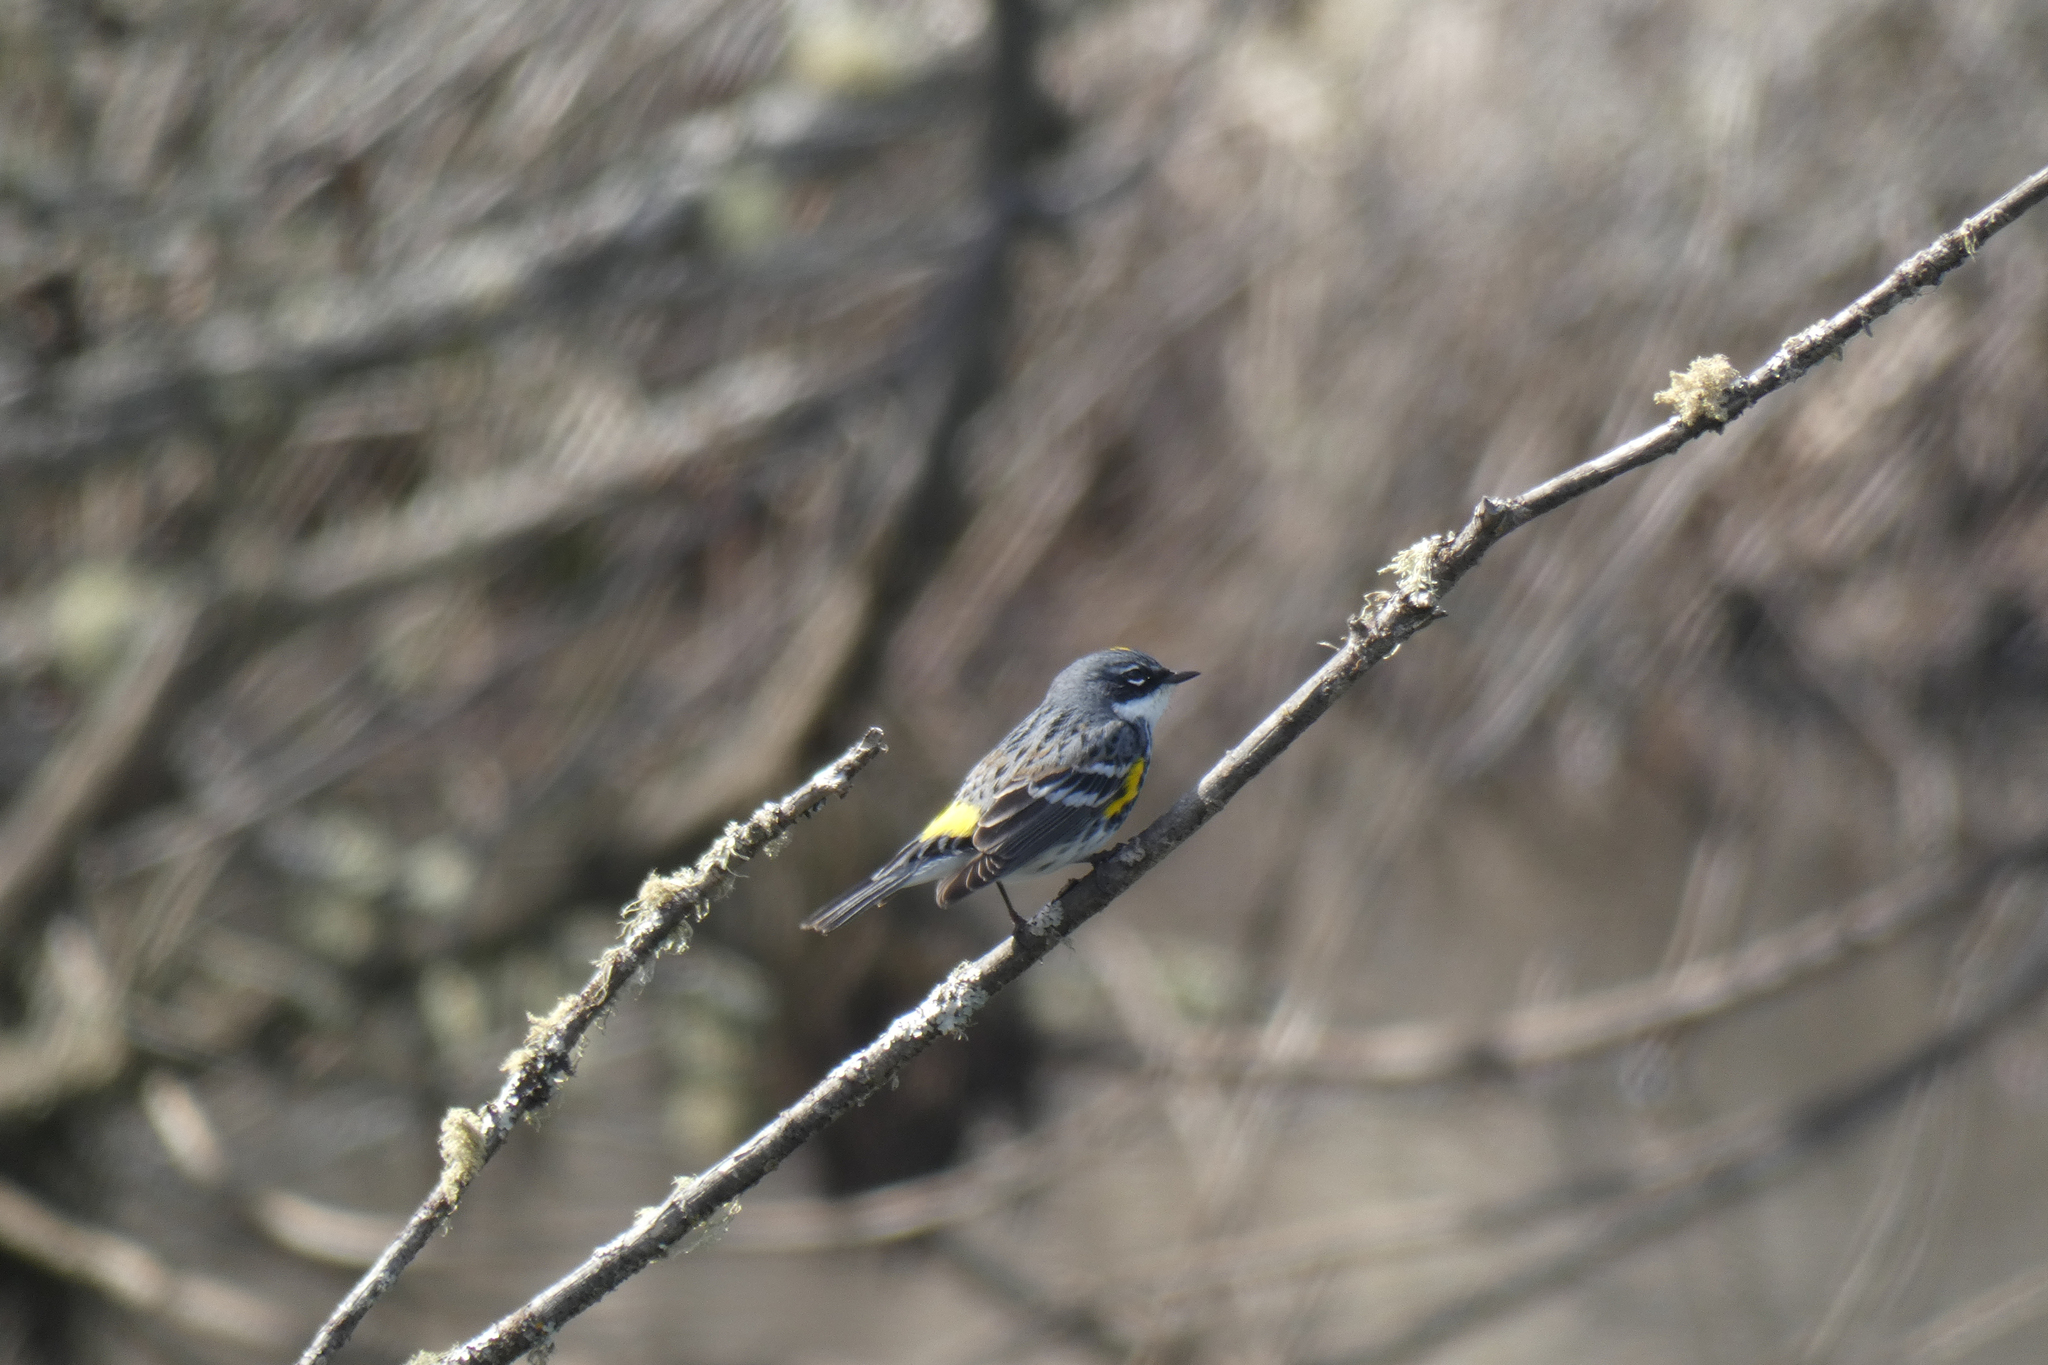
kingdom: Animalia
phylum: Chordata
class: Aves
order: Passeriformes
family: Parulidae
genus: Setophaga
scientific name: Setophaga coronata
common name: Myrtle warbler
